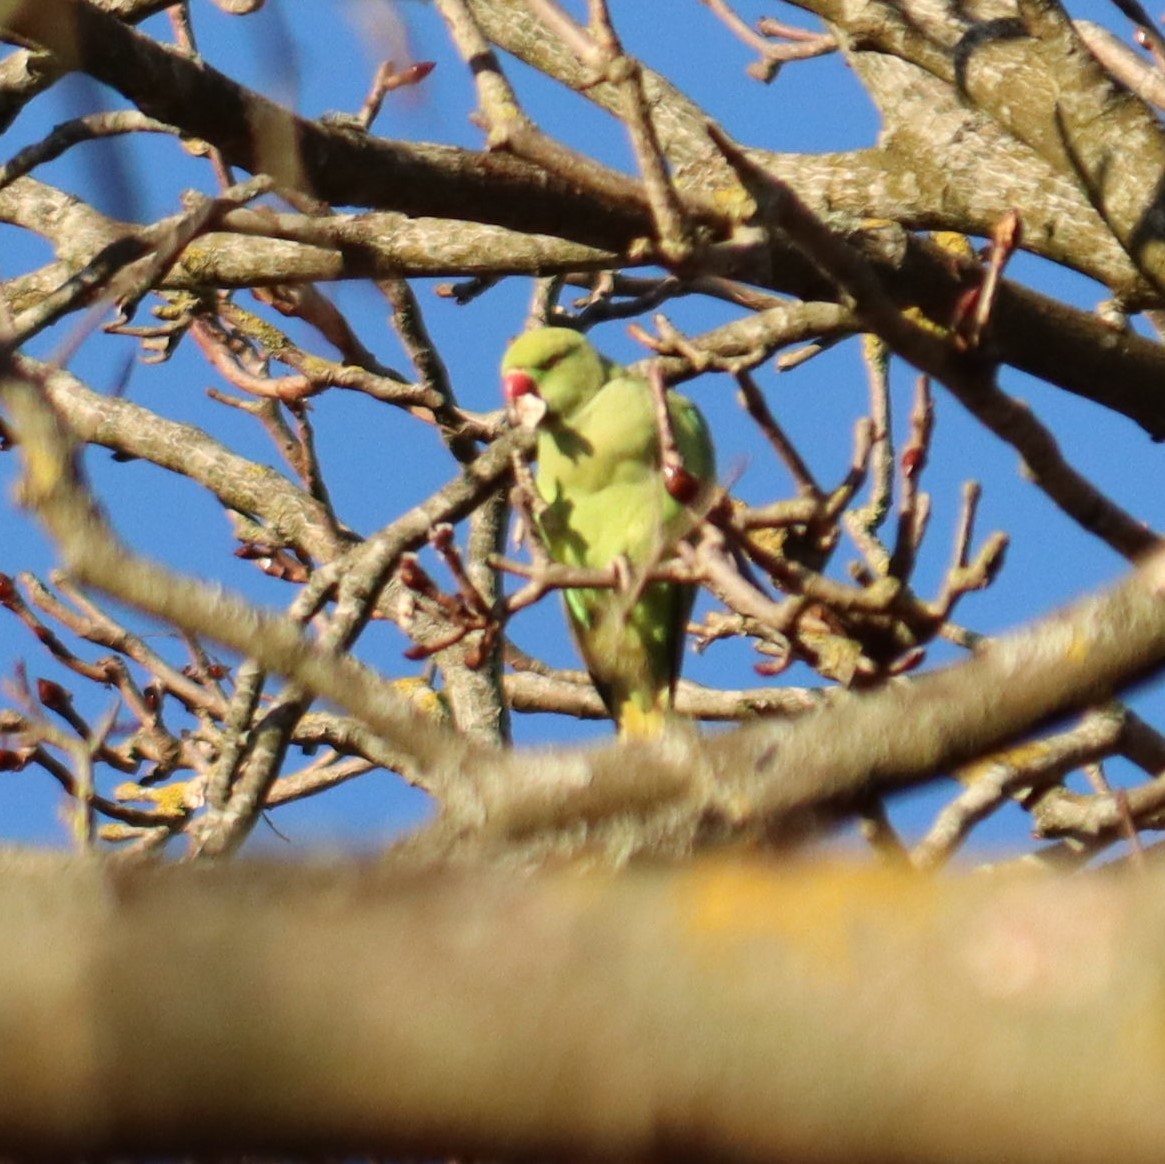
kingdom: Animalia
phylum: Chordata
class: Aves
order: Psittaciformes
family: Psittacidae
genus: Psittacula
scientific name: Psittacula krameri
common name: Rose-ringed parakeet
